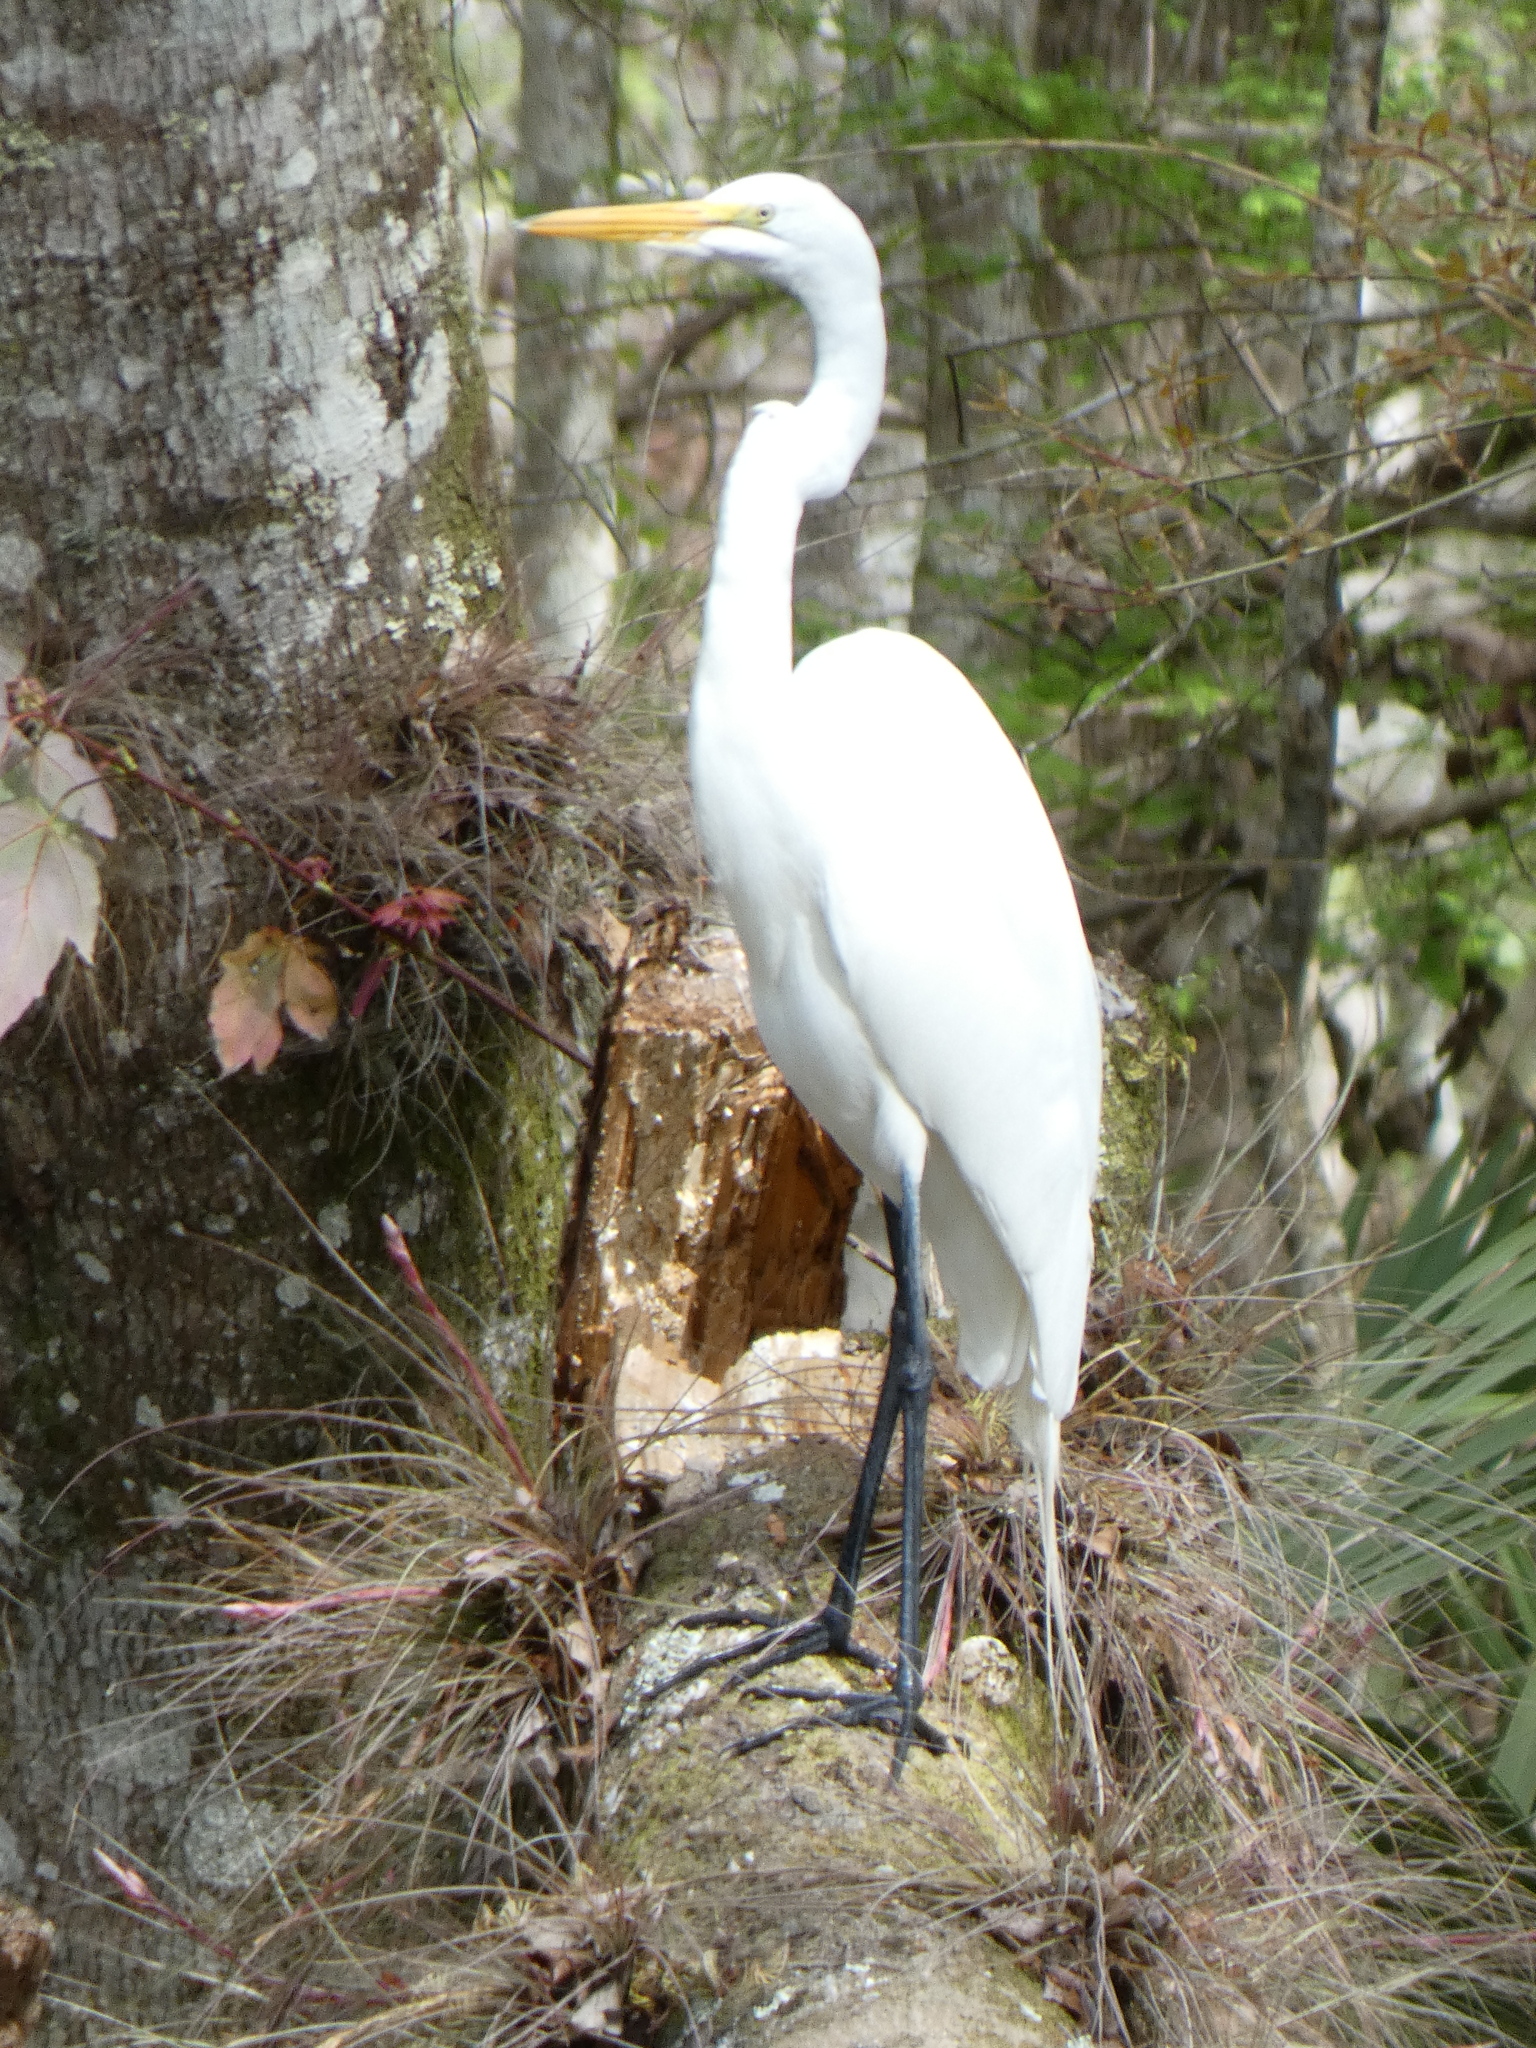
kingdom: Animalia
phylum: Chordata
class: Aves
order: Pelecaniformes
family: Ardeidae
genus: Ardea
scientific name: Ardea alba
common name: Great egret
